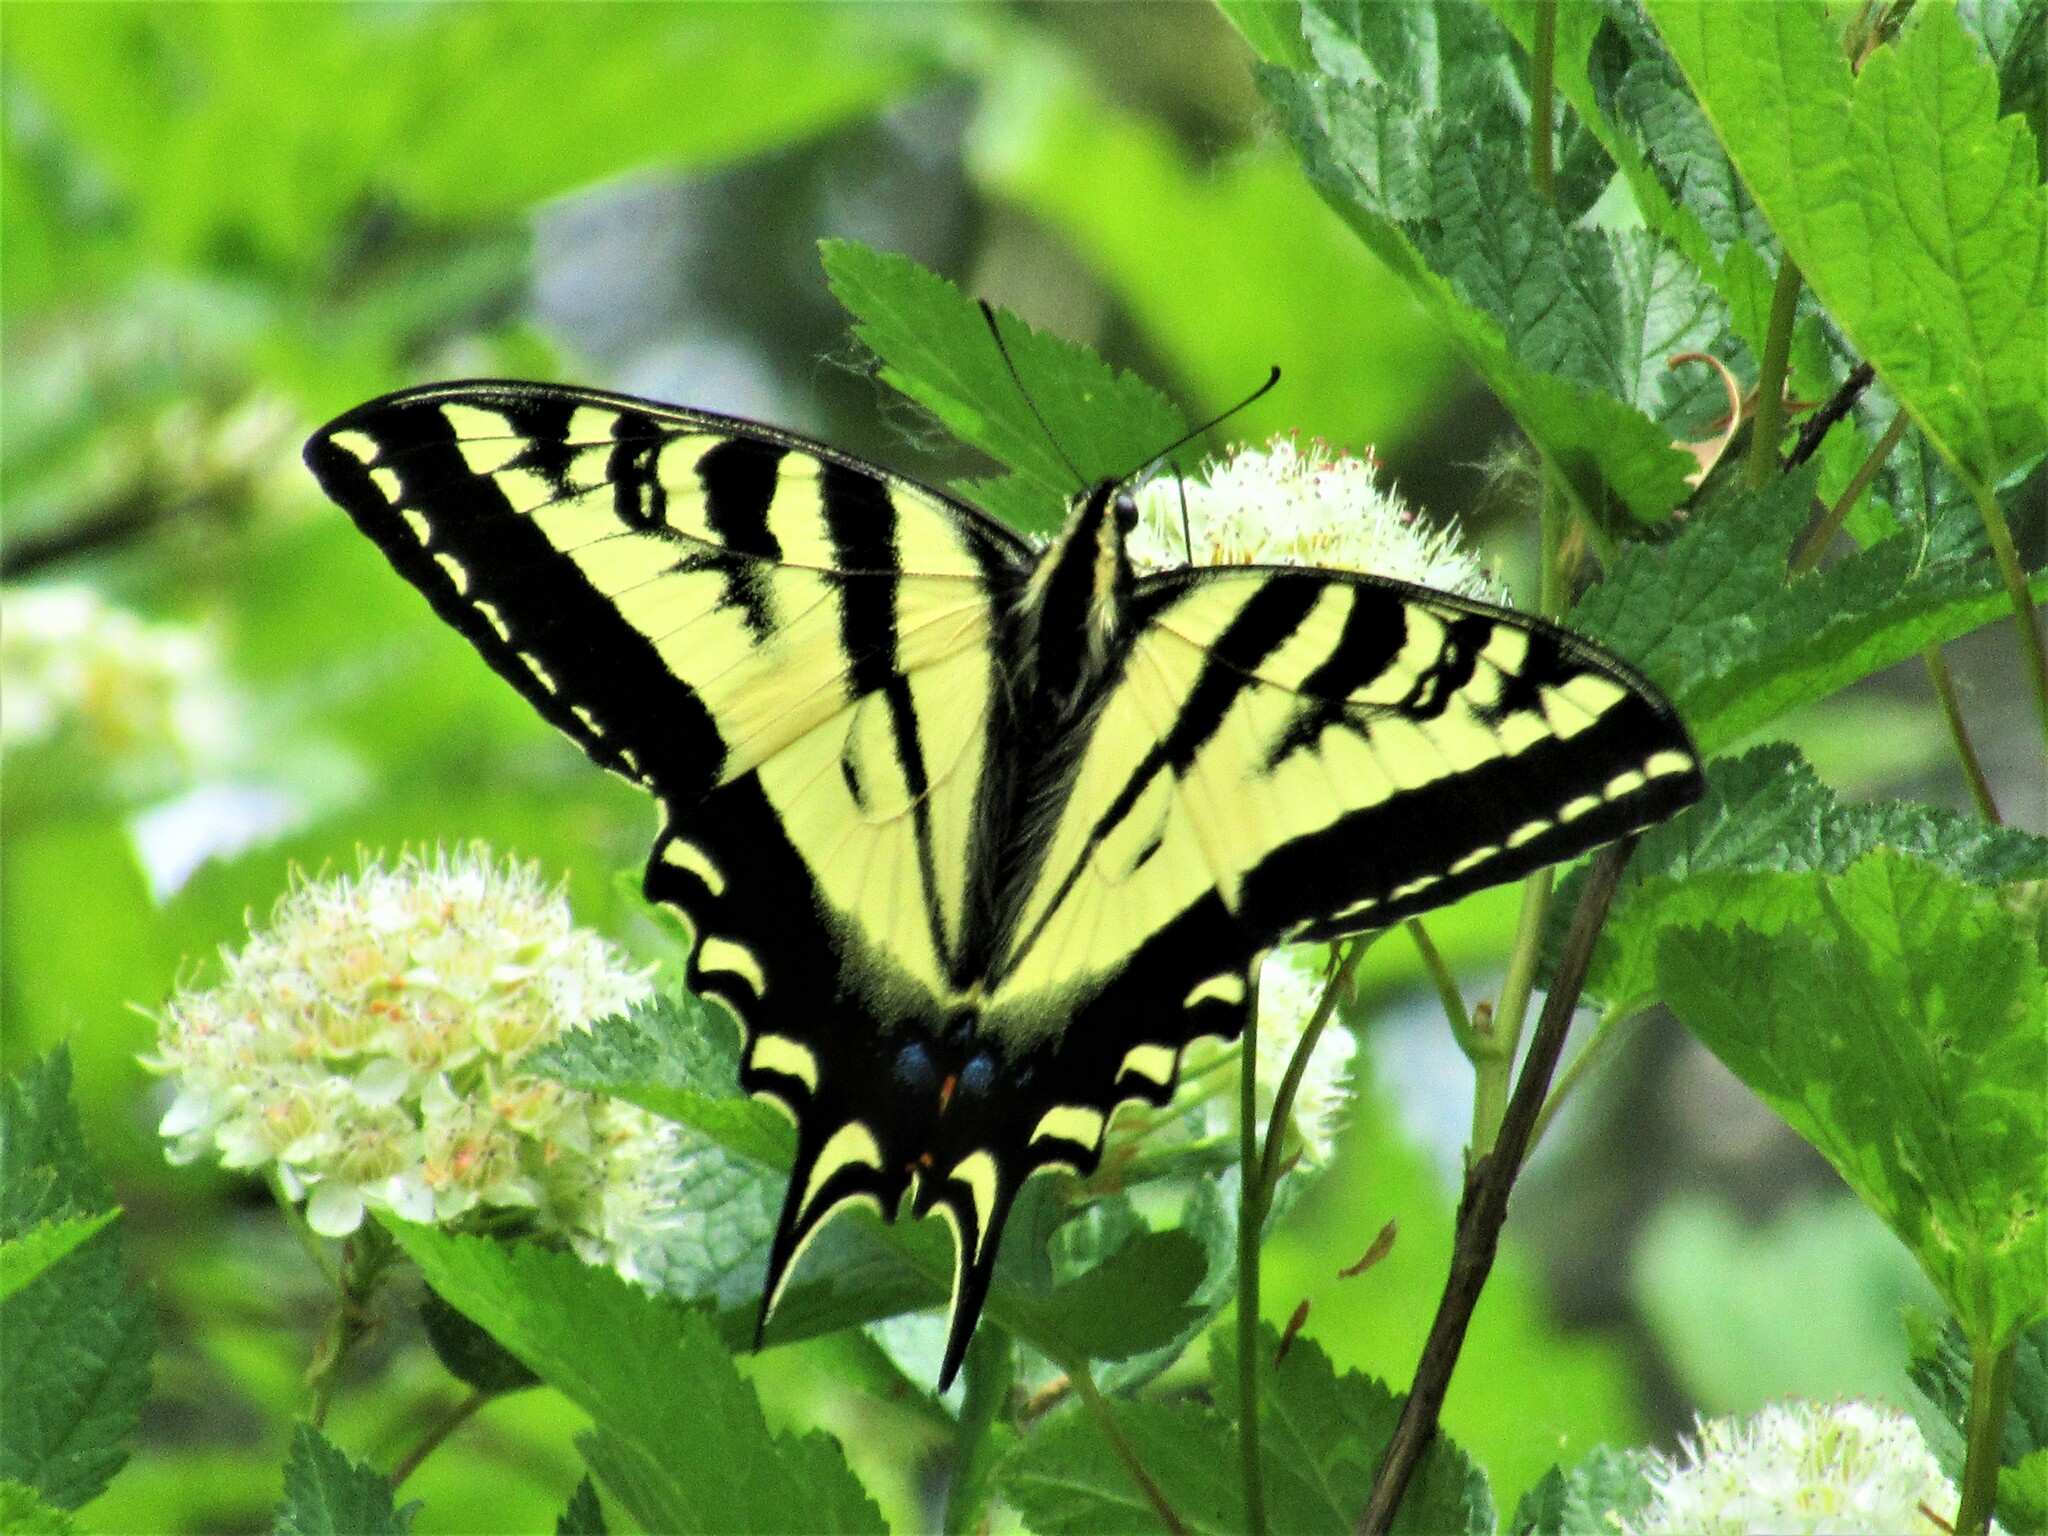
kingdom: Animalia
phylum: Arthropoda
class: Insecta
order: Lepidoptera
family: Papilionidae
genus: Papilio
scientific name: Papilio rutulus
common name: Western tiger swallowtail
